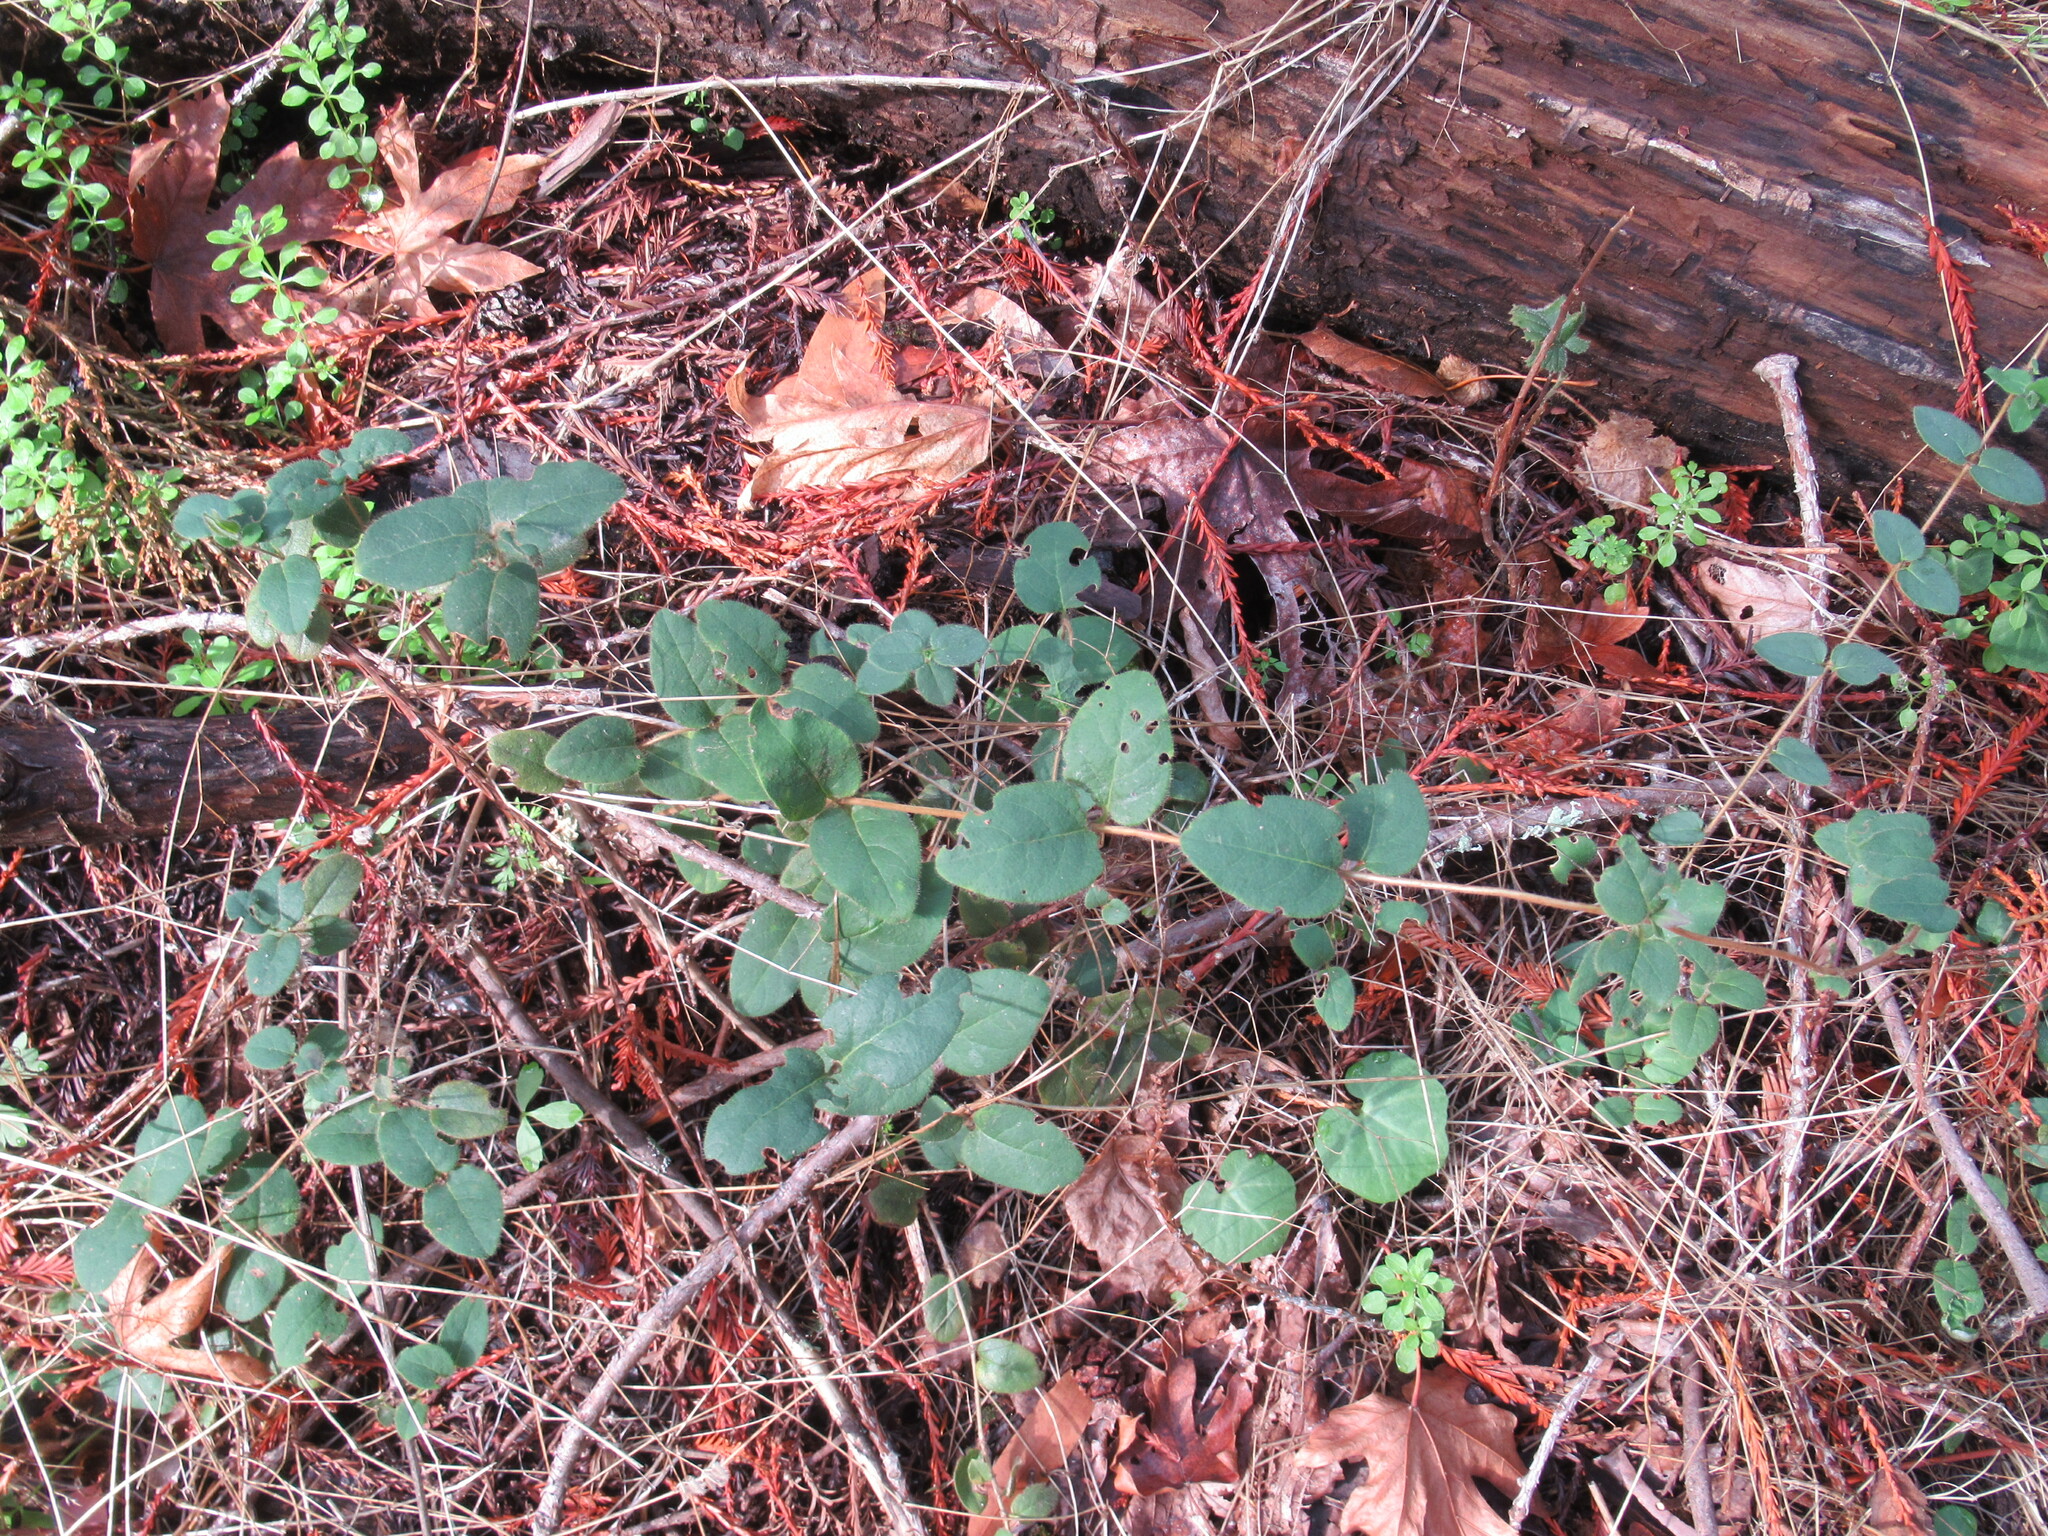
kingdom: Plantae
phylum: Tracheophyta
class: Magnoliopsida
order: Dipsacales
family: Caprifoliaceae
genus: Lonicera
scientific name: Lonicera hispidula
